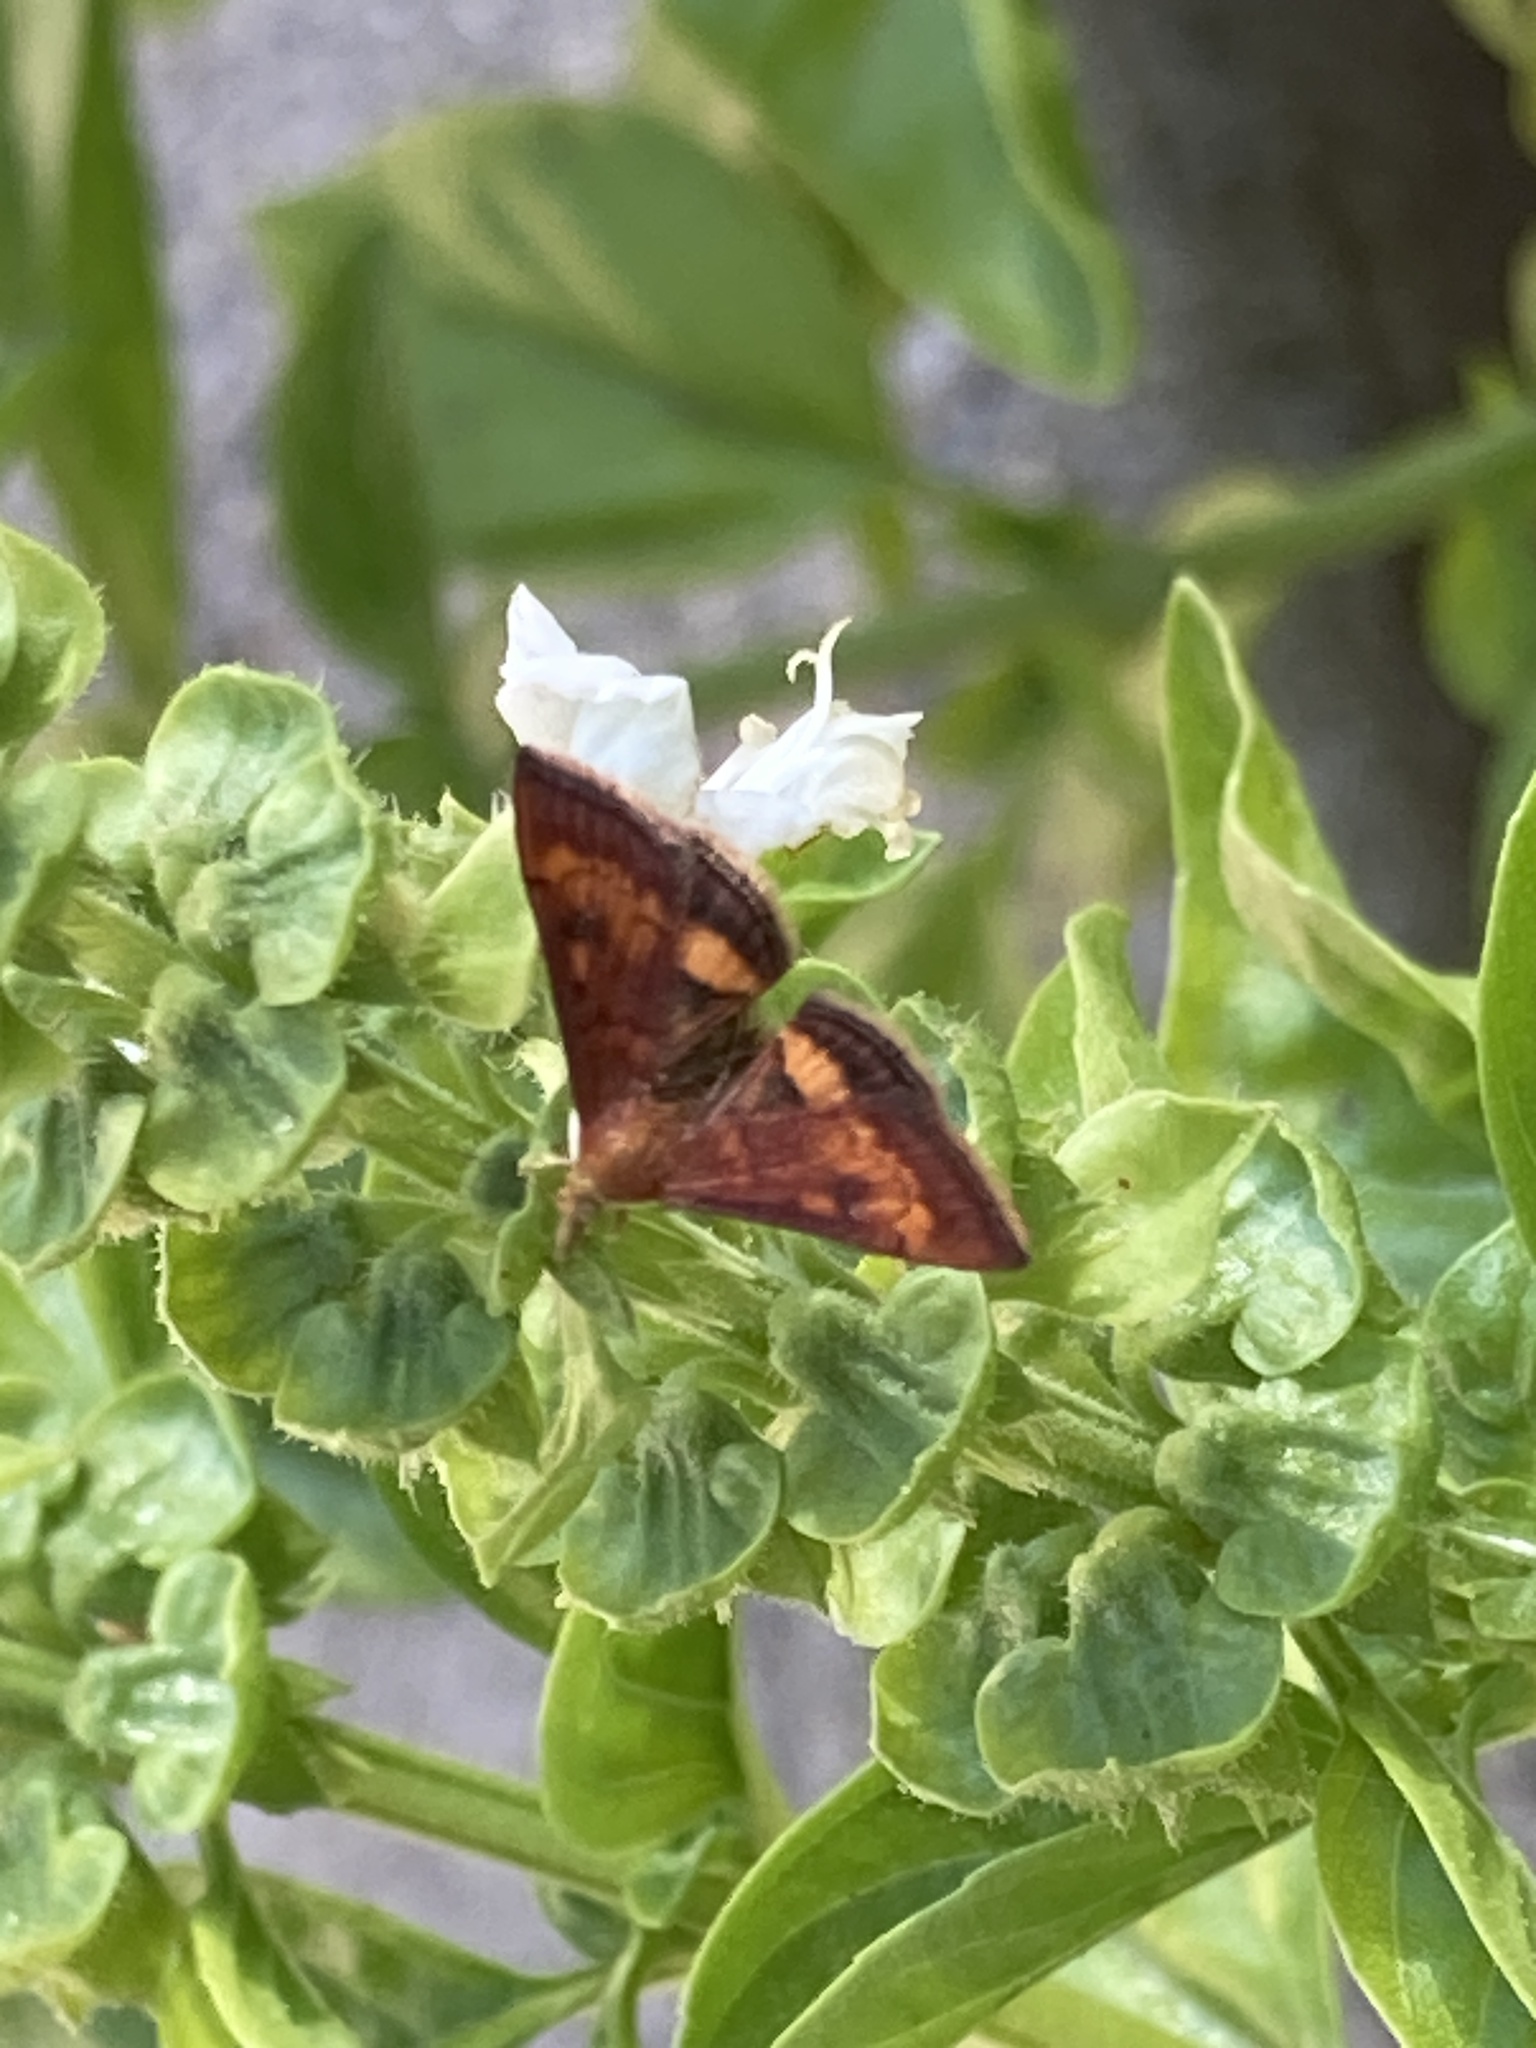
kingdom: Animalia
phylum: Arthropoda
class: Insecta
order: Lepidoptera
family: Crambidae
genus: Pyrausta
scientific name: Pyrausta californicalis
